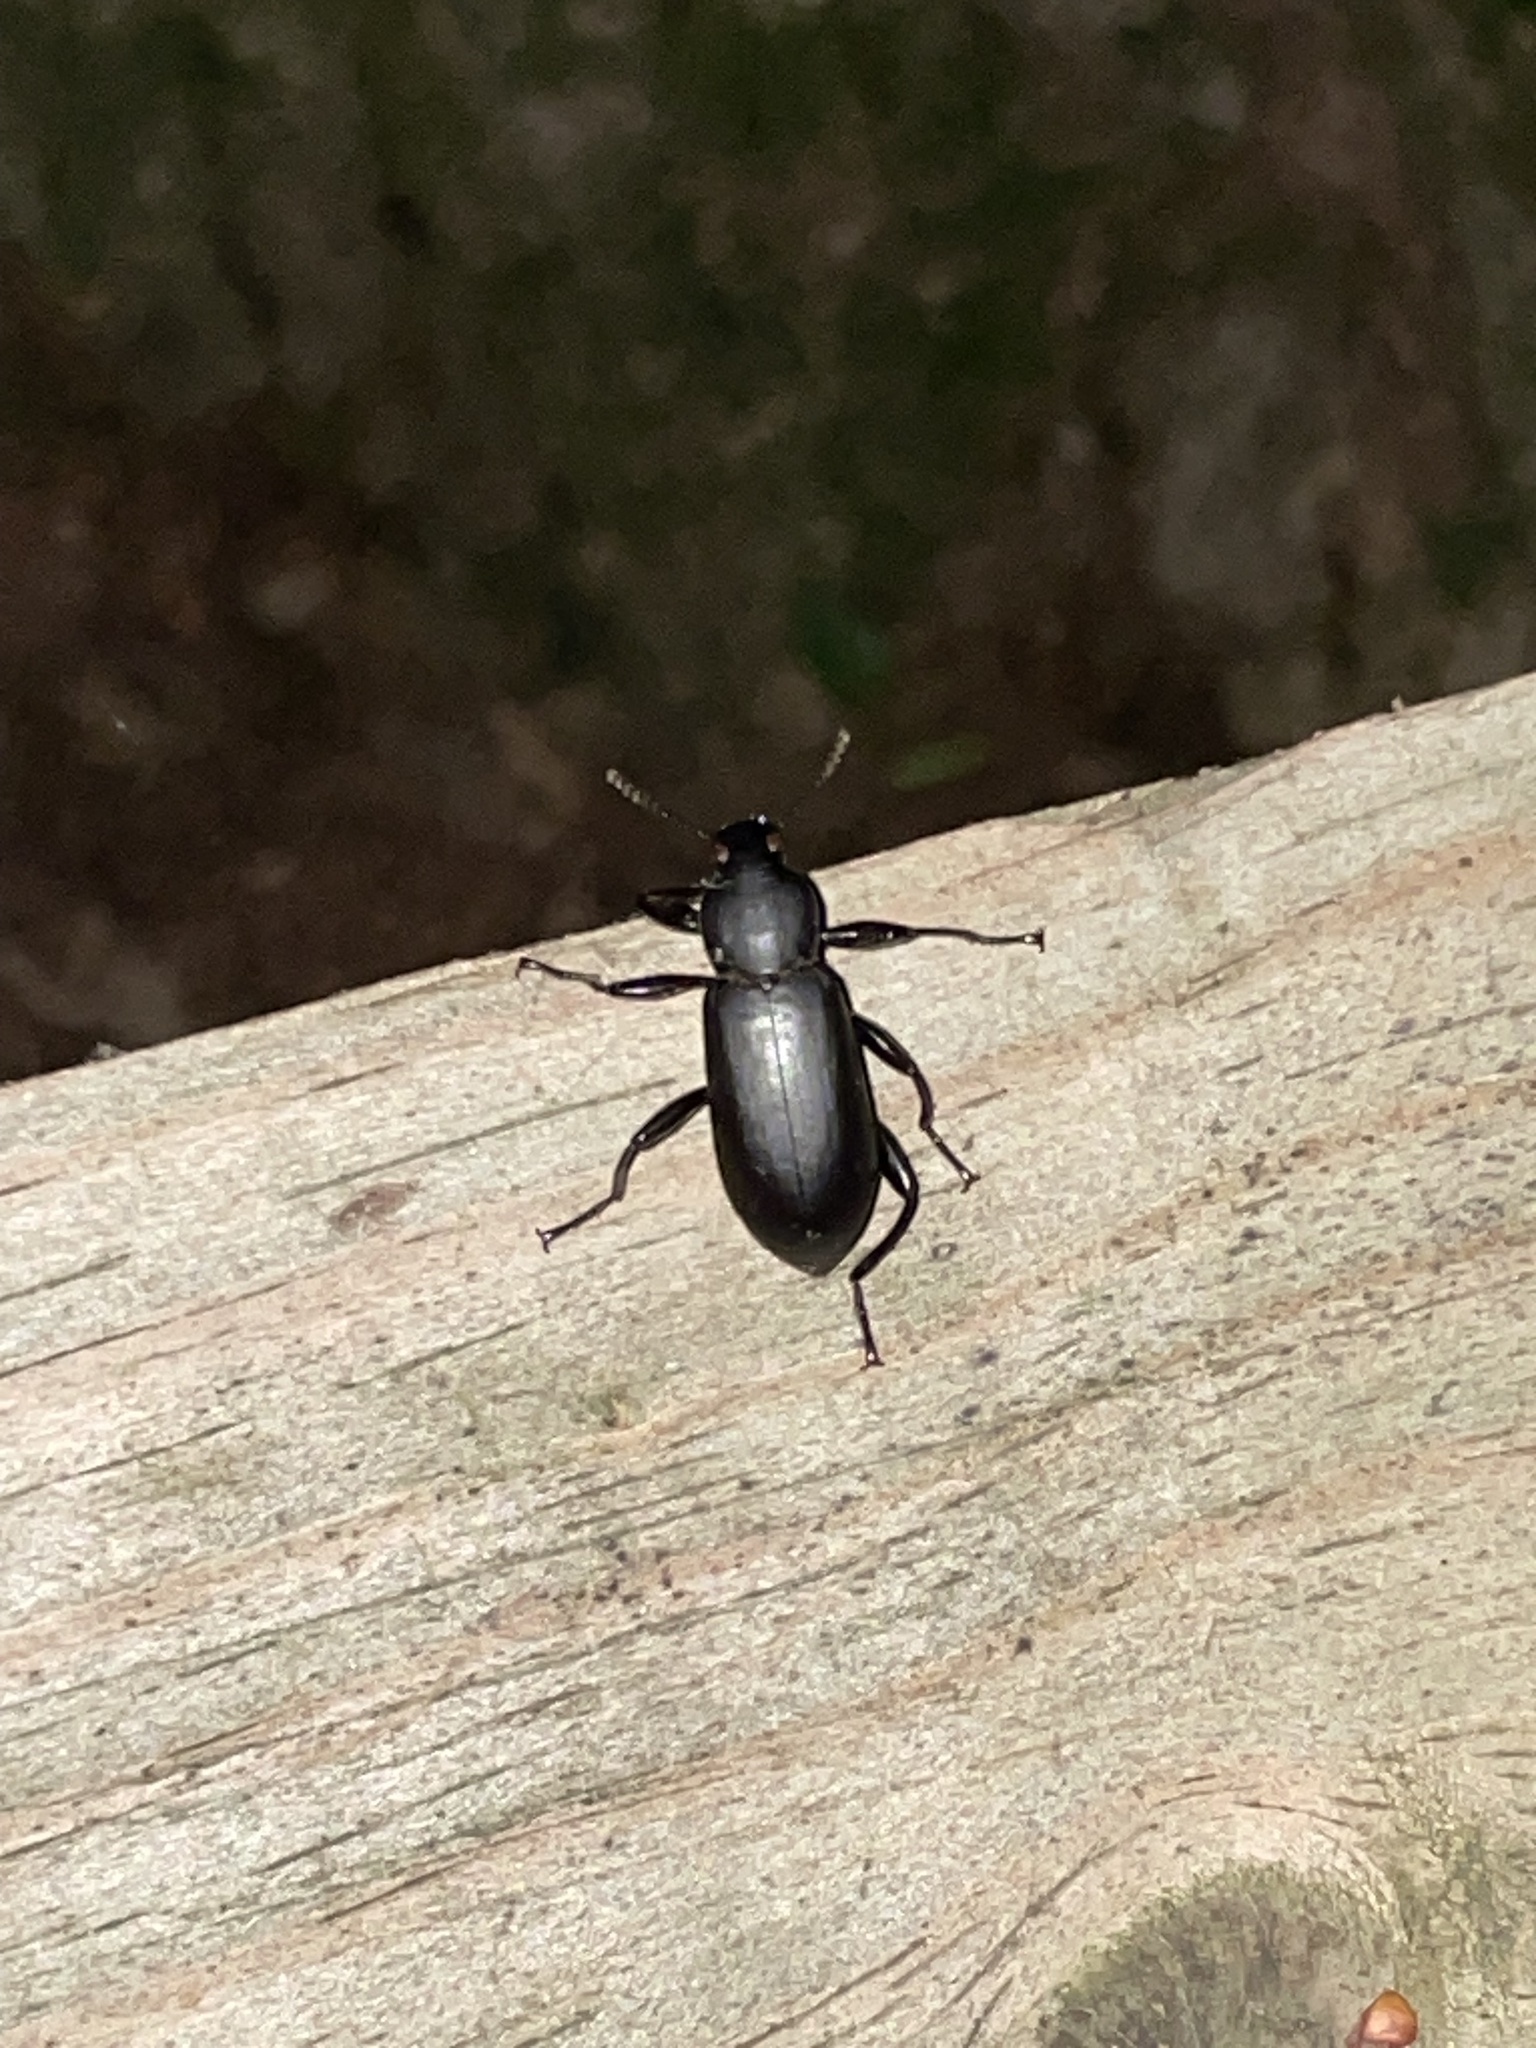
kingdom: Animalia
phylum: Arthropoda
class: Insecta
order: Coleoptera
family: Tenebrionidae
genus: Alobates
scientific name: Alobates pensylvanicus
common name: False mealworm beetle
